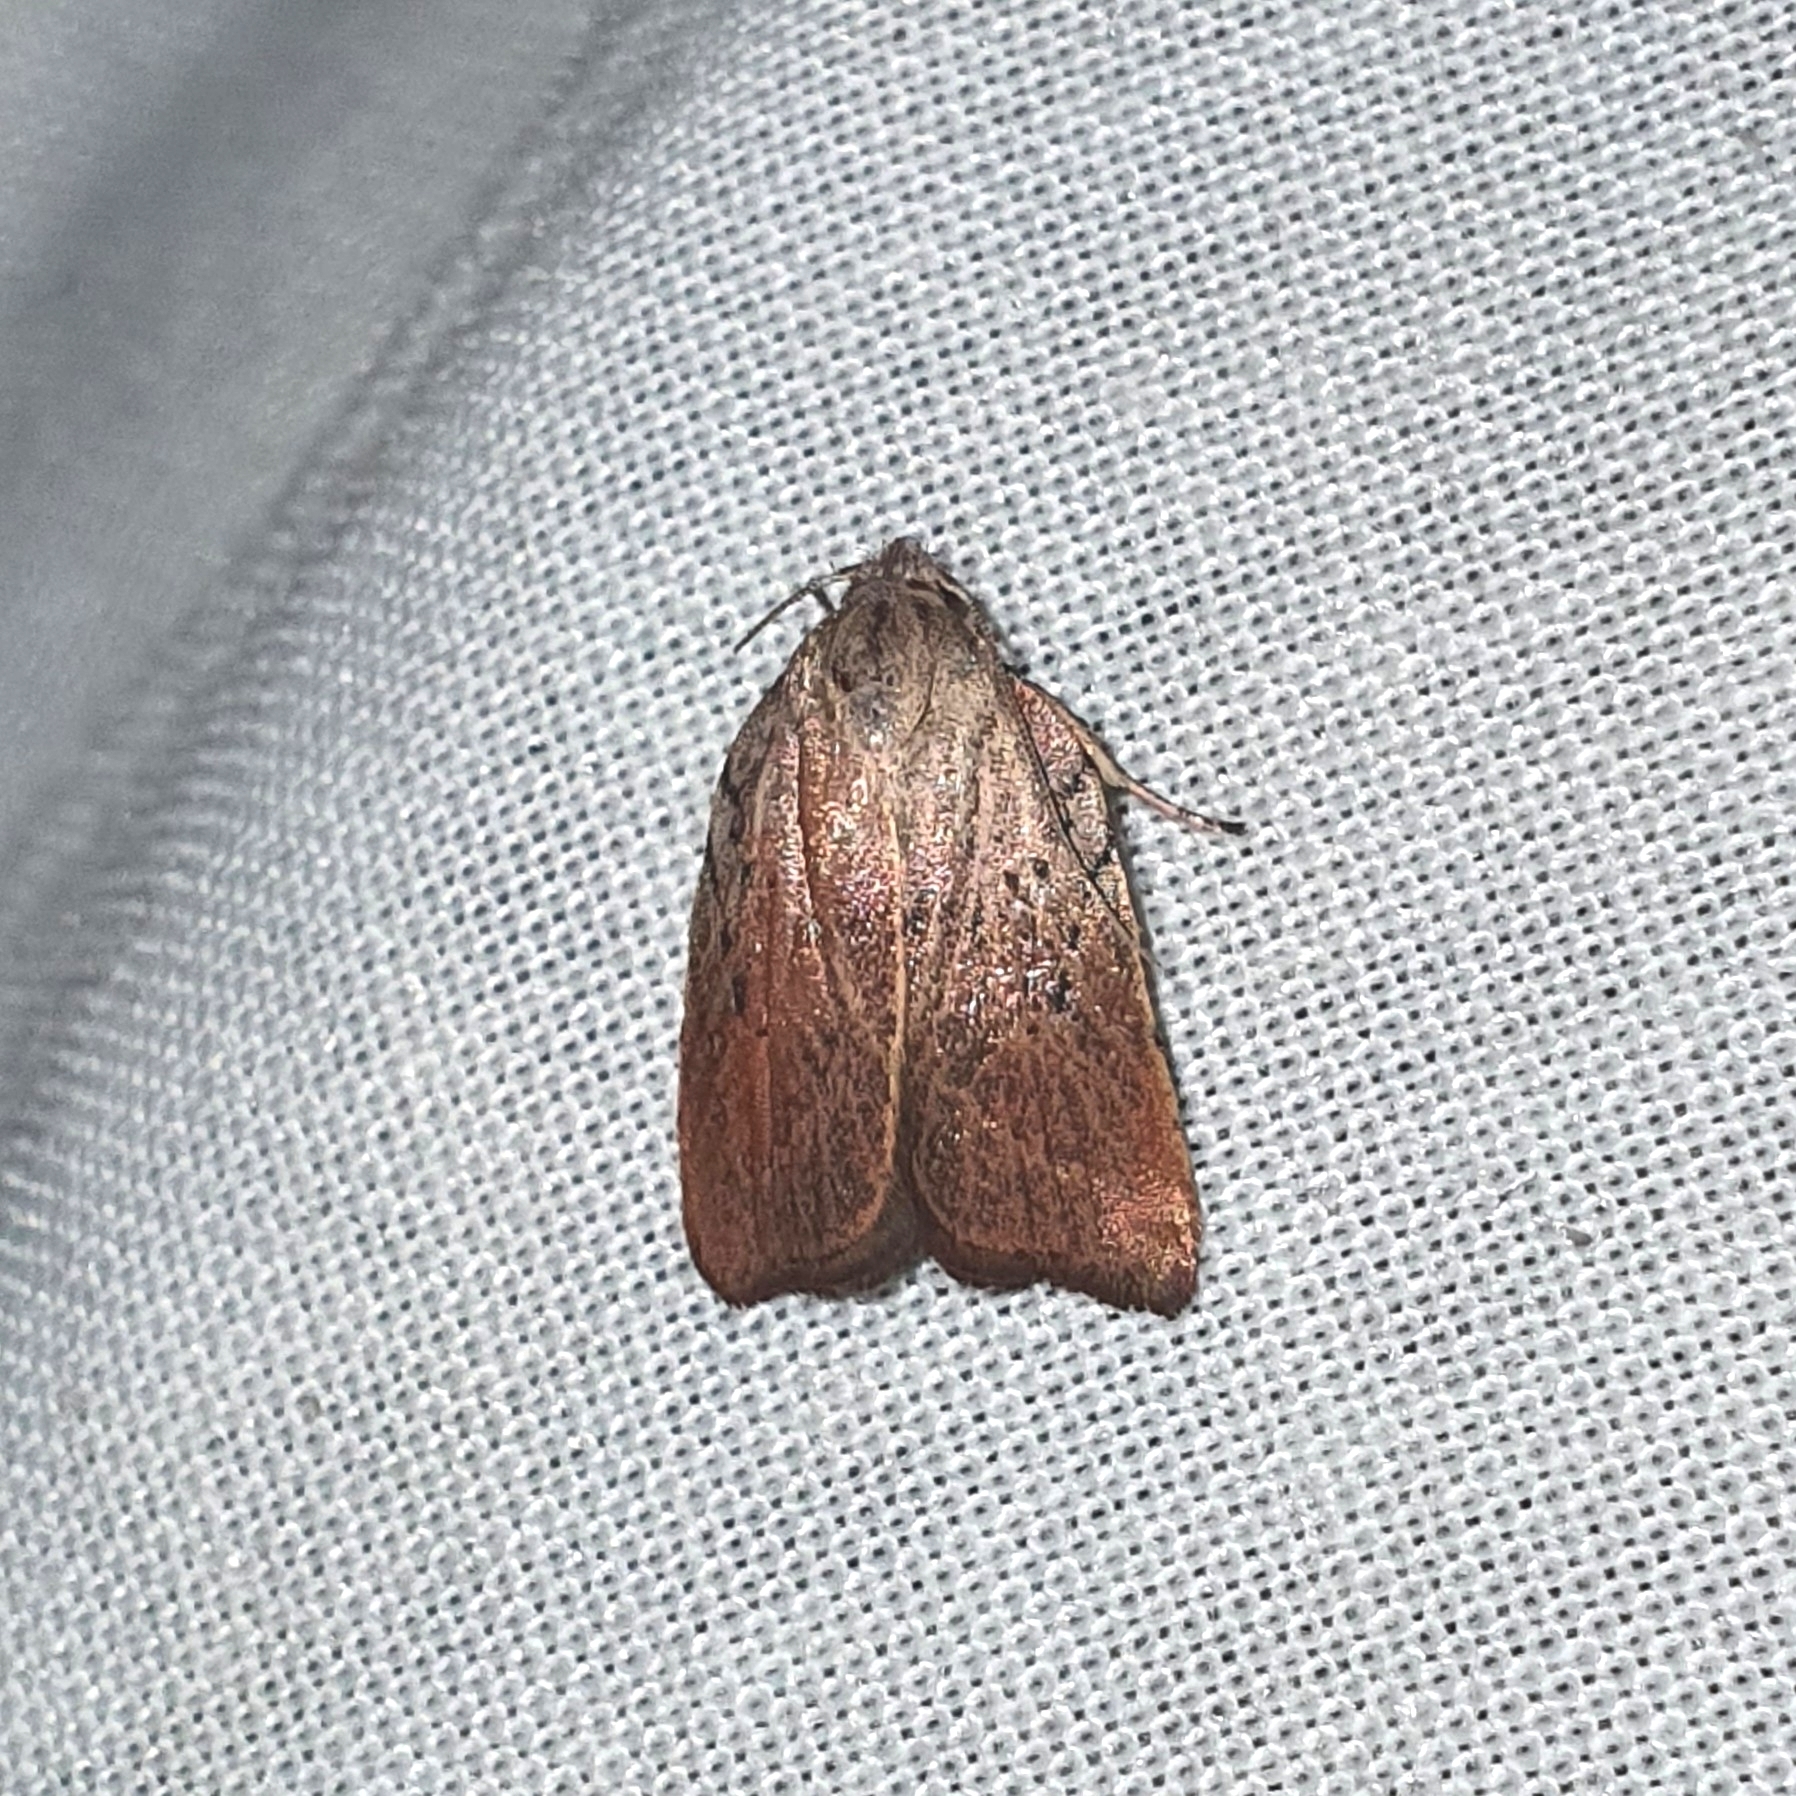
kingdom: Animalia
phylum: Arthropoda
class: Insecta
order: Lepidoptera
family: Oecophoridae
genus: Tortricopsis
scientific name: Tortricopsis pyroptis
